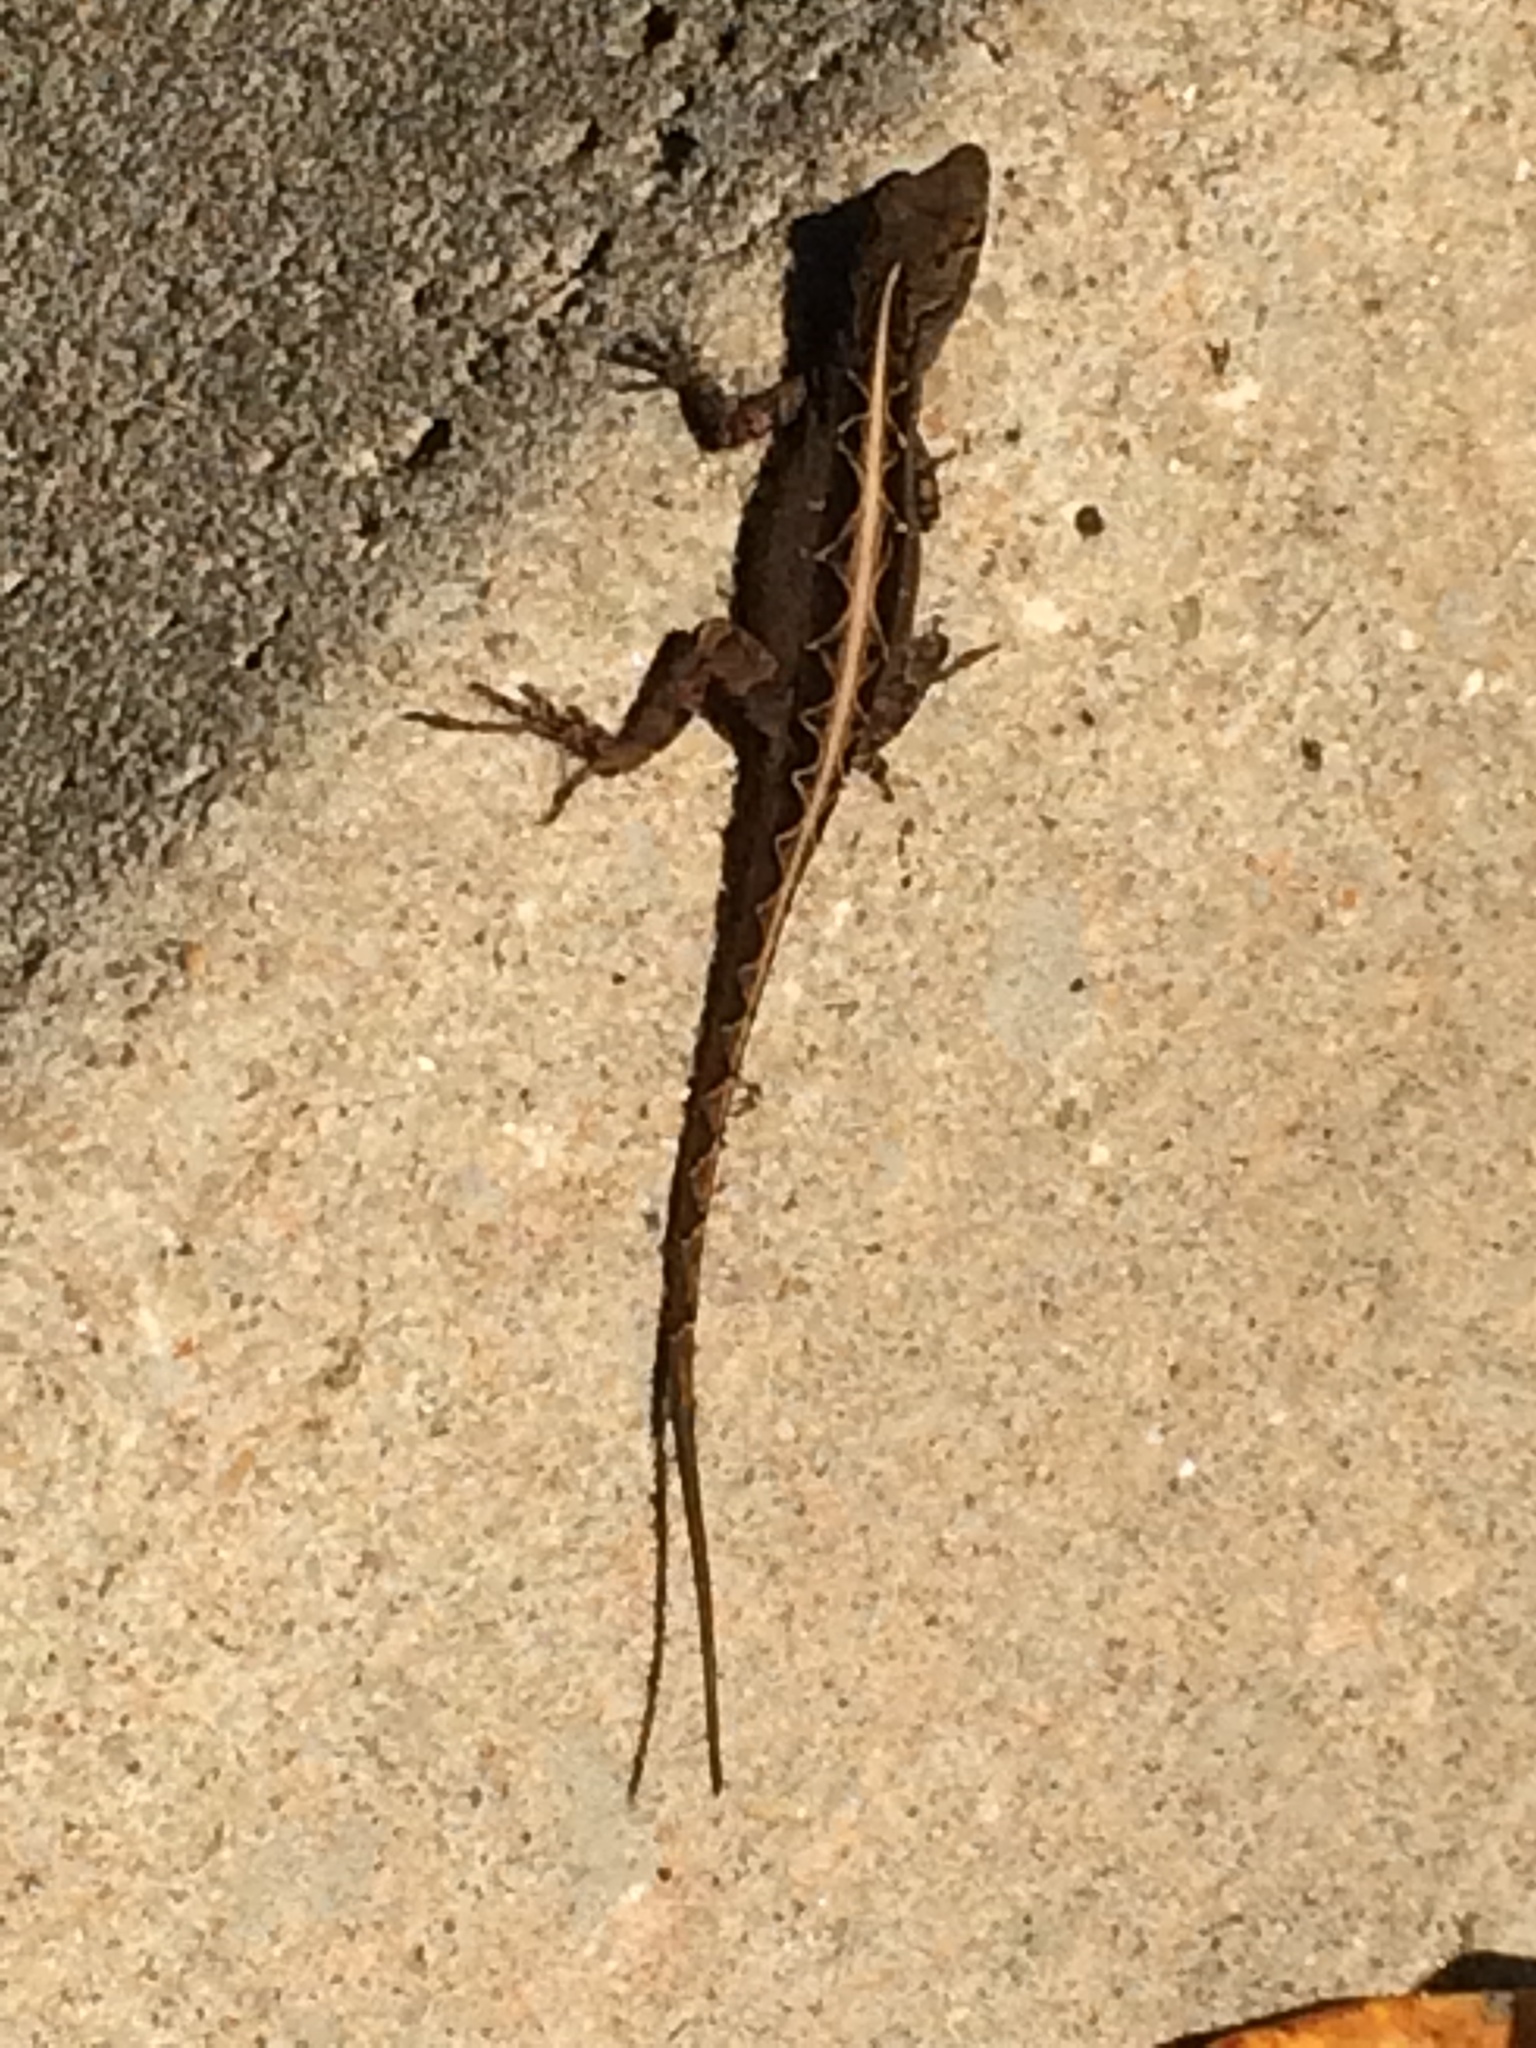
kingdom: Animalia
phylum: Chordata
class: Squamata
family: Dactyloidae
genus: Anolis
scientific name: Anolis sagrei
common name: Brown anole
